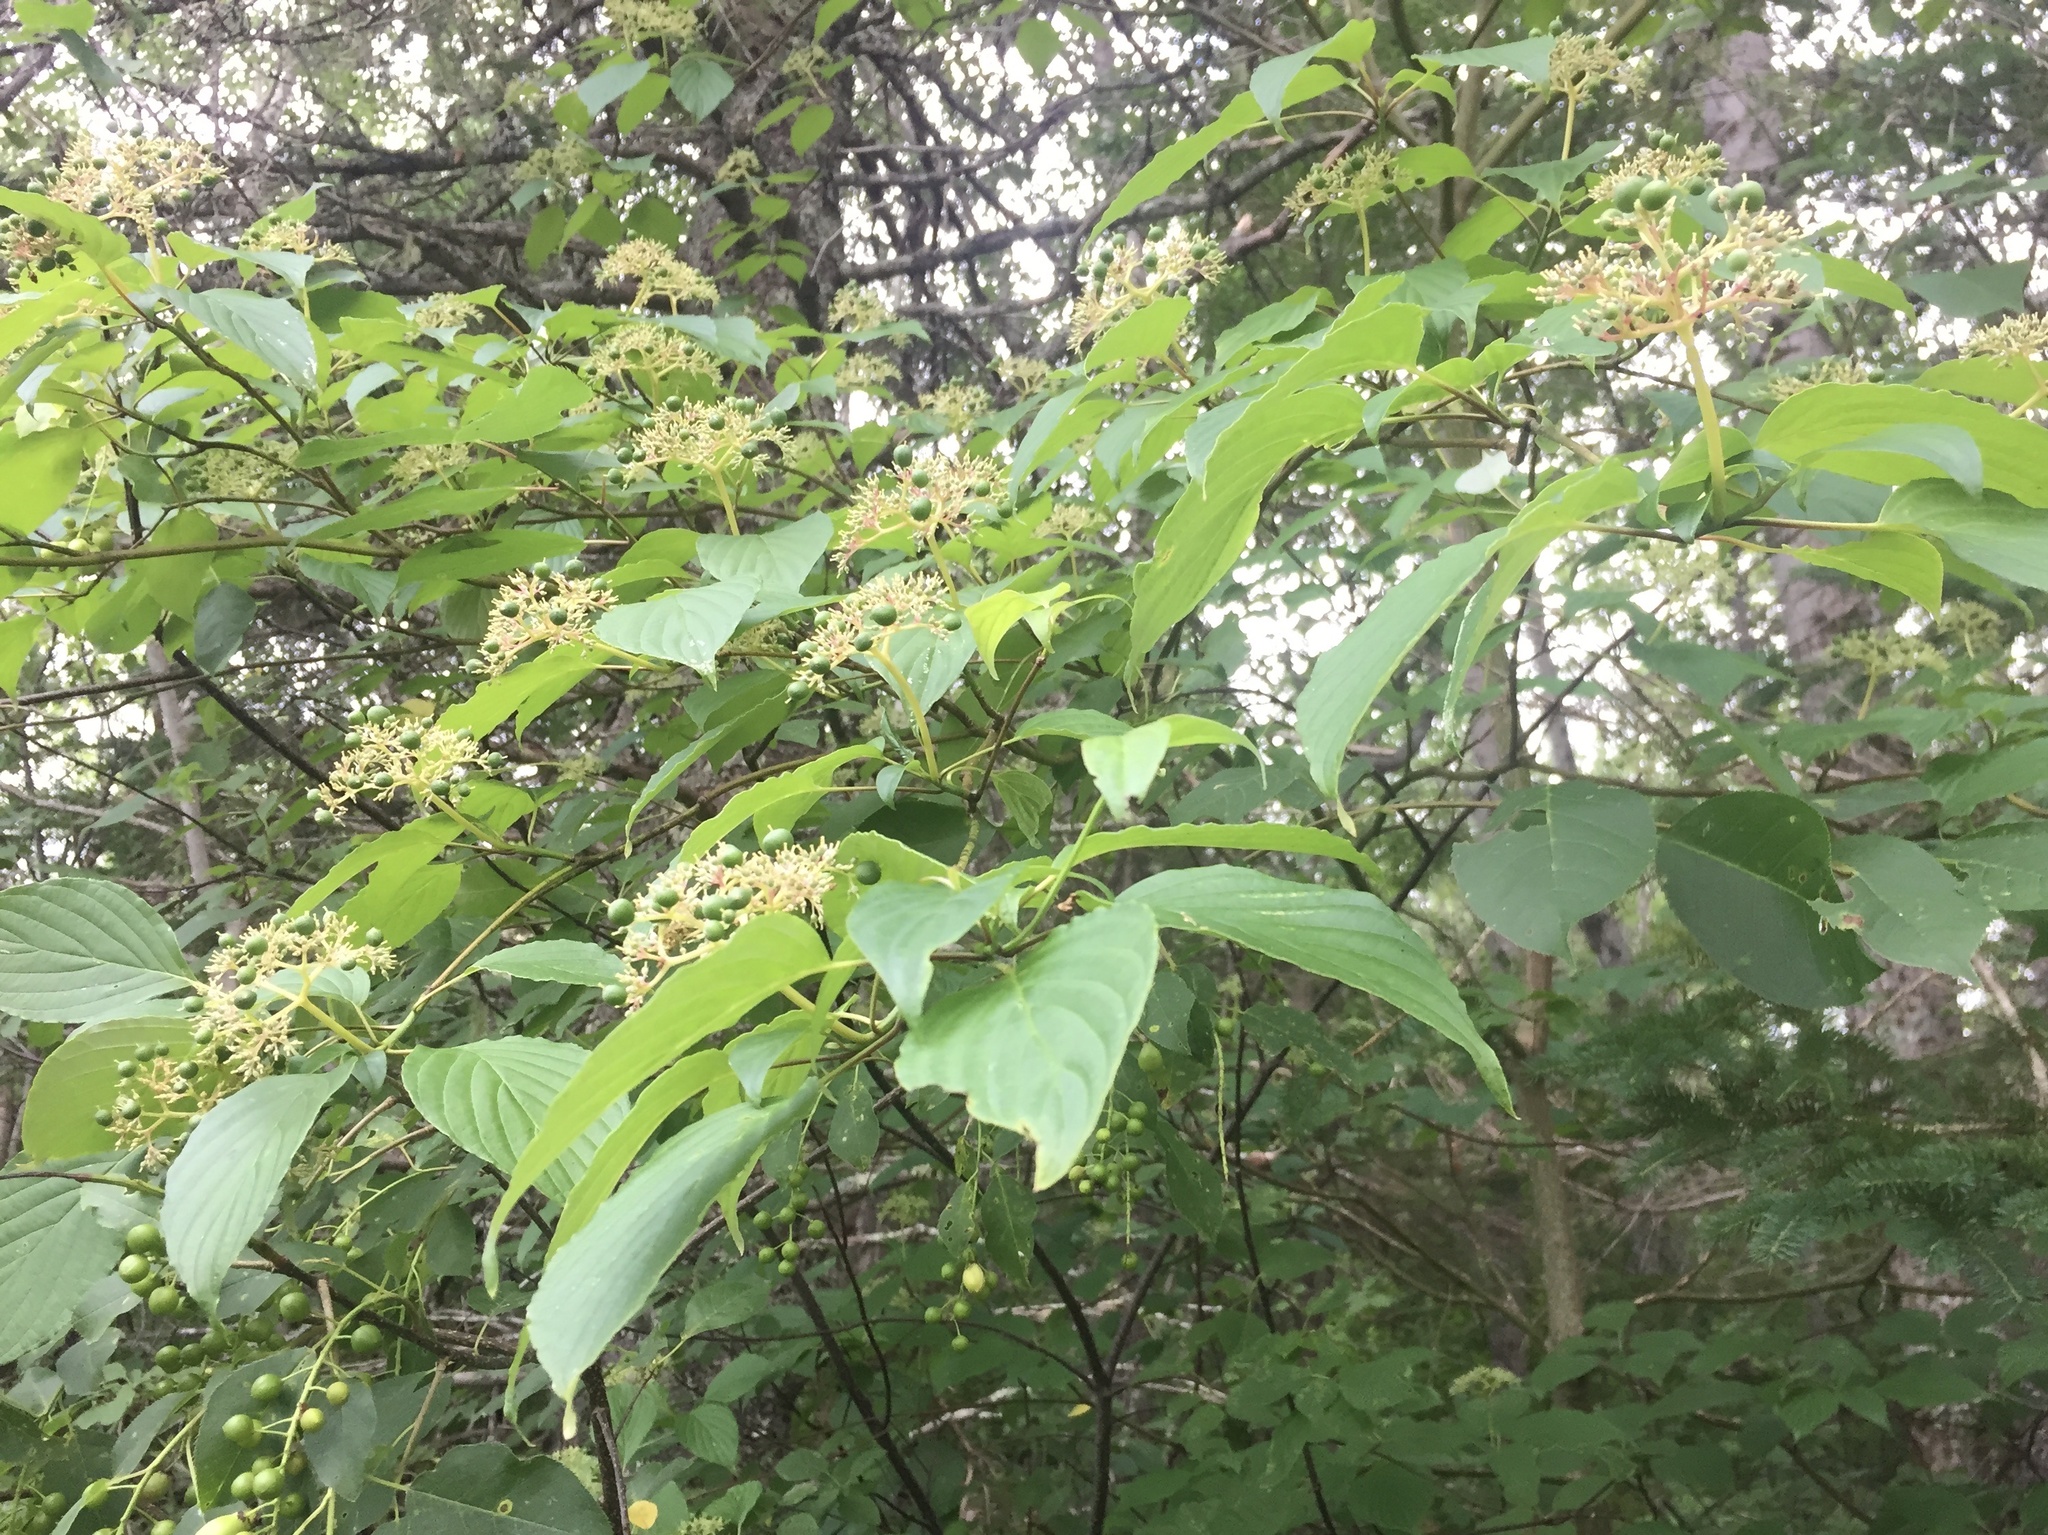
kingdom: Plantae
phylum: Tracheophyta
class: Magnoliopsida
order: Cornales
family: Cornaceae
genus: Cornus
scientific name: Cornus alternifolia
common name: Pagoda dogwood
